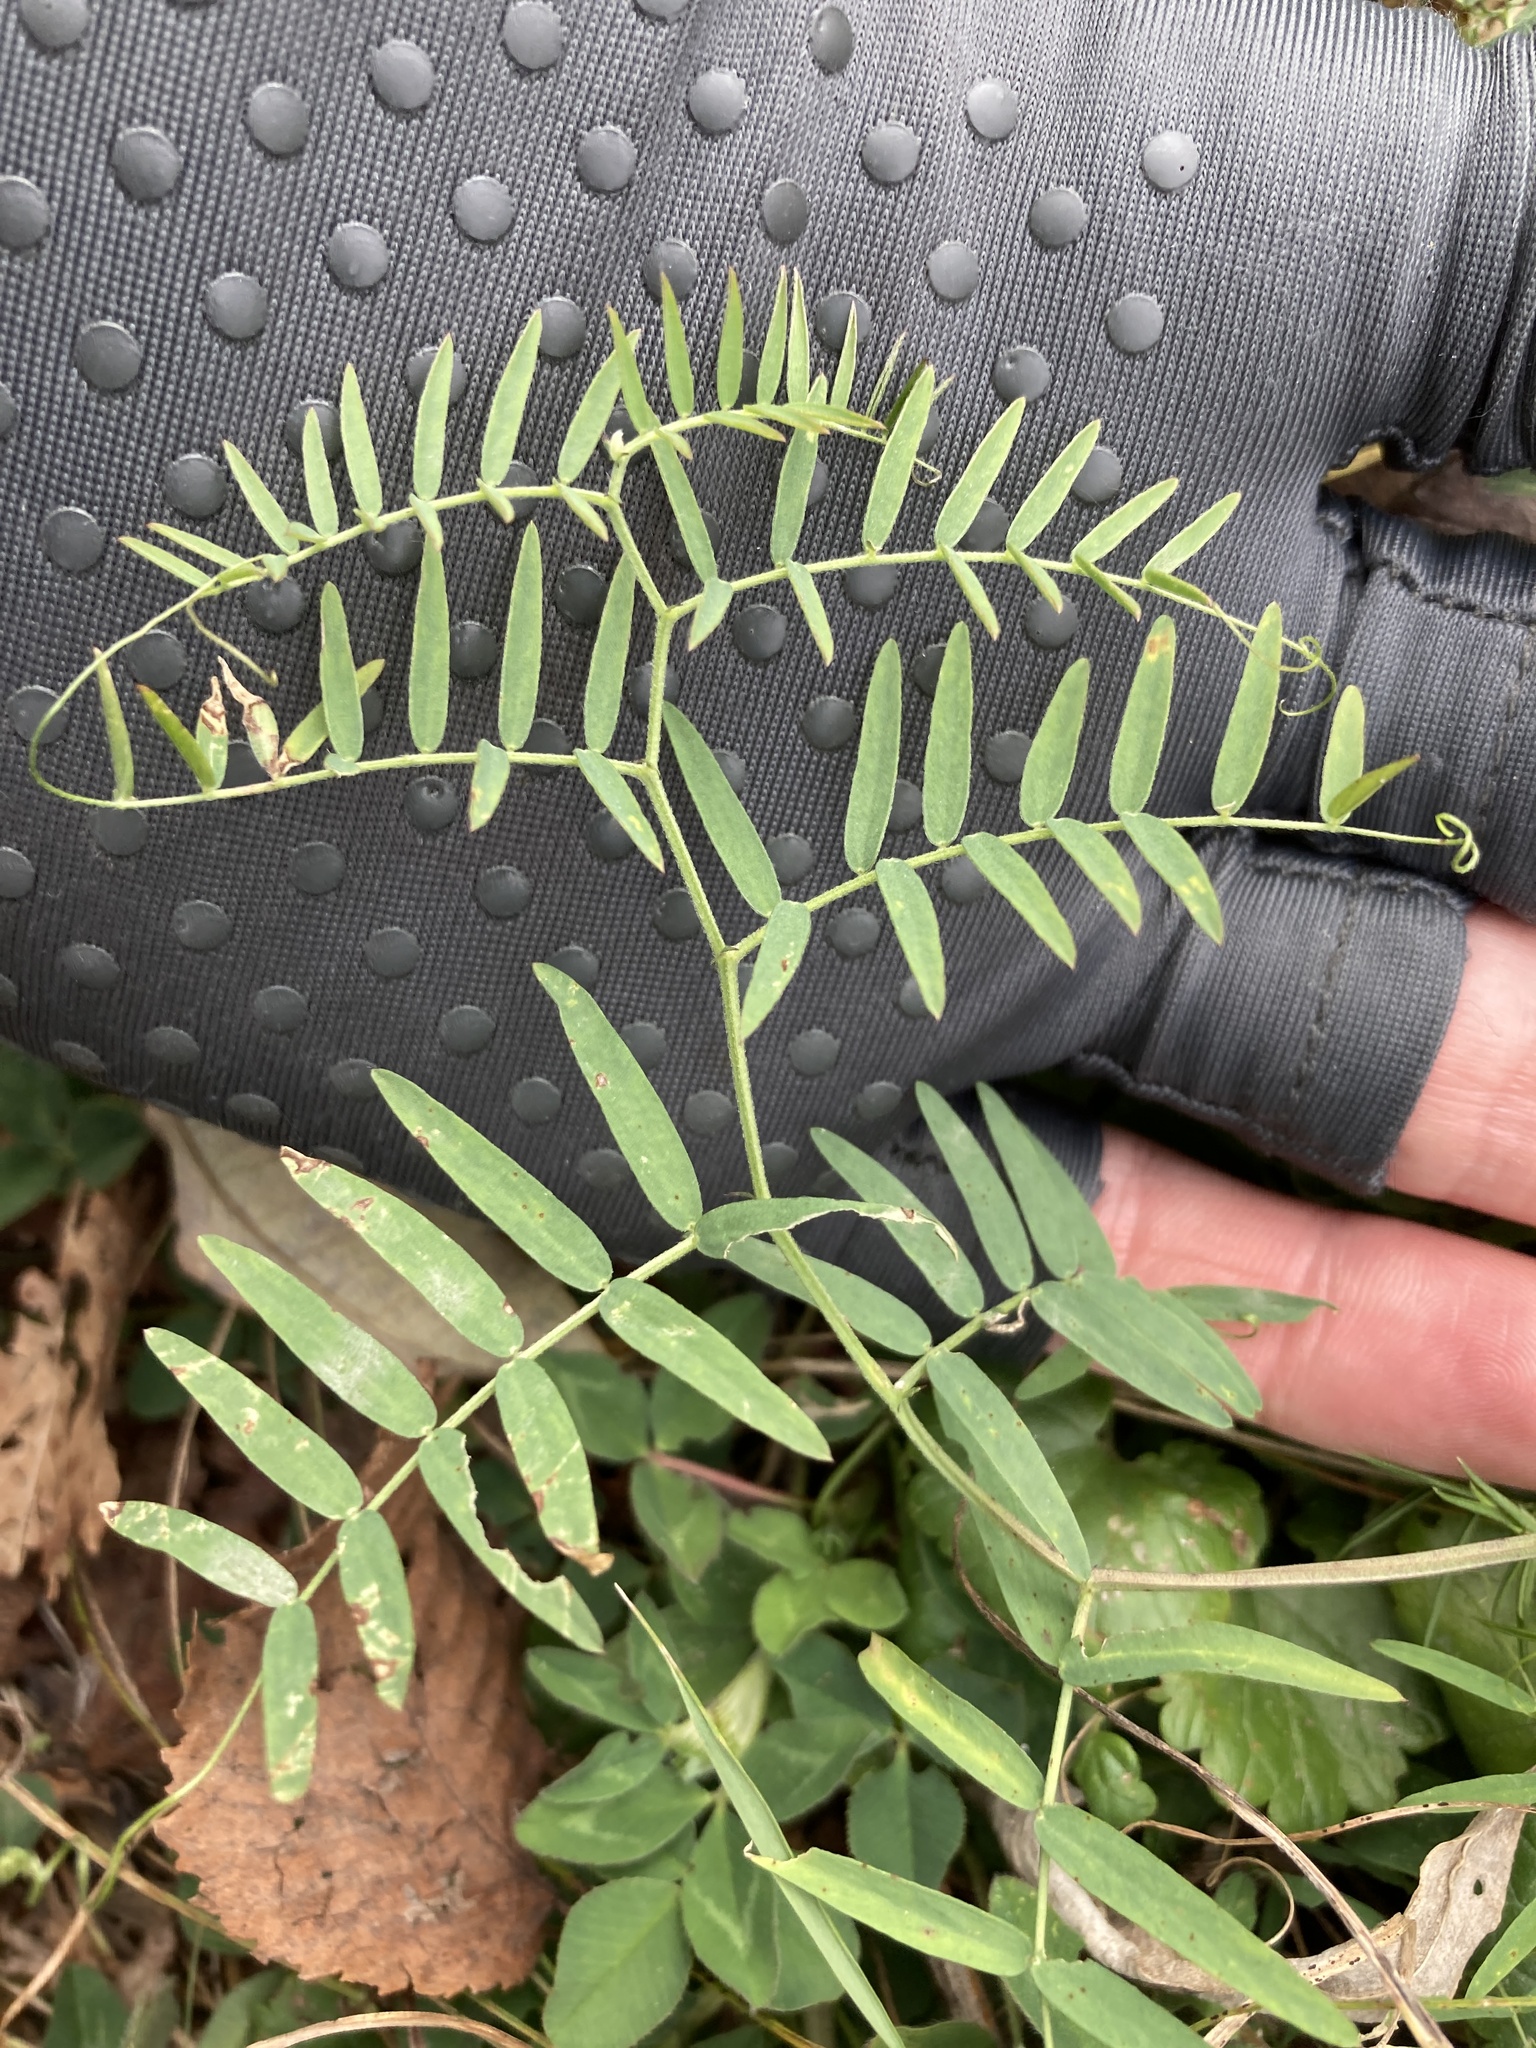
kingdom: Plantae
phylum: Tracheophyta
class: Magnoliopsida
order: Fabales
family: Fabaceae
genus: Vicia
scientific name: Vicia cracca
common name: Bird vetch
